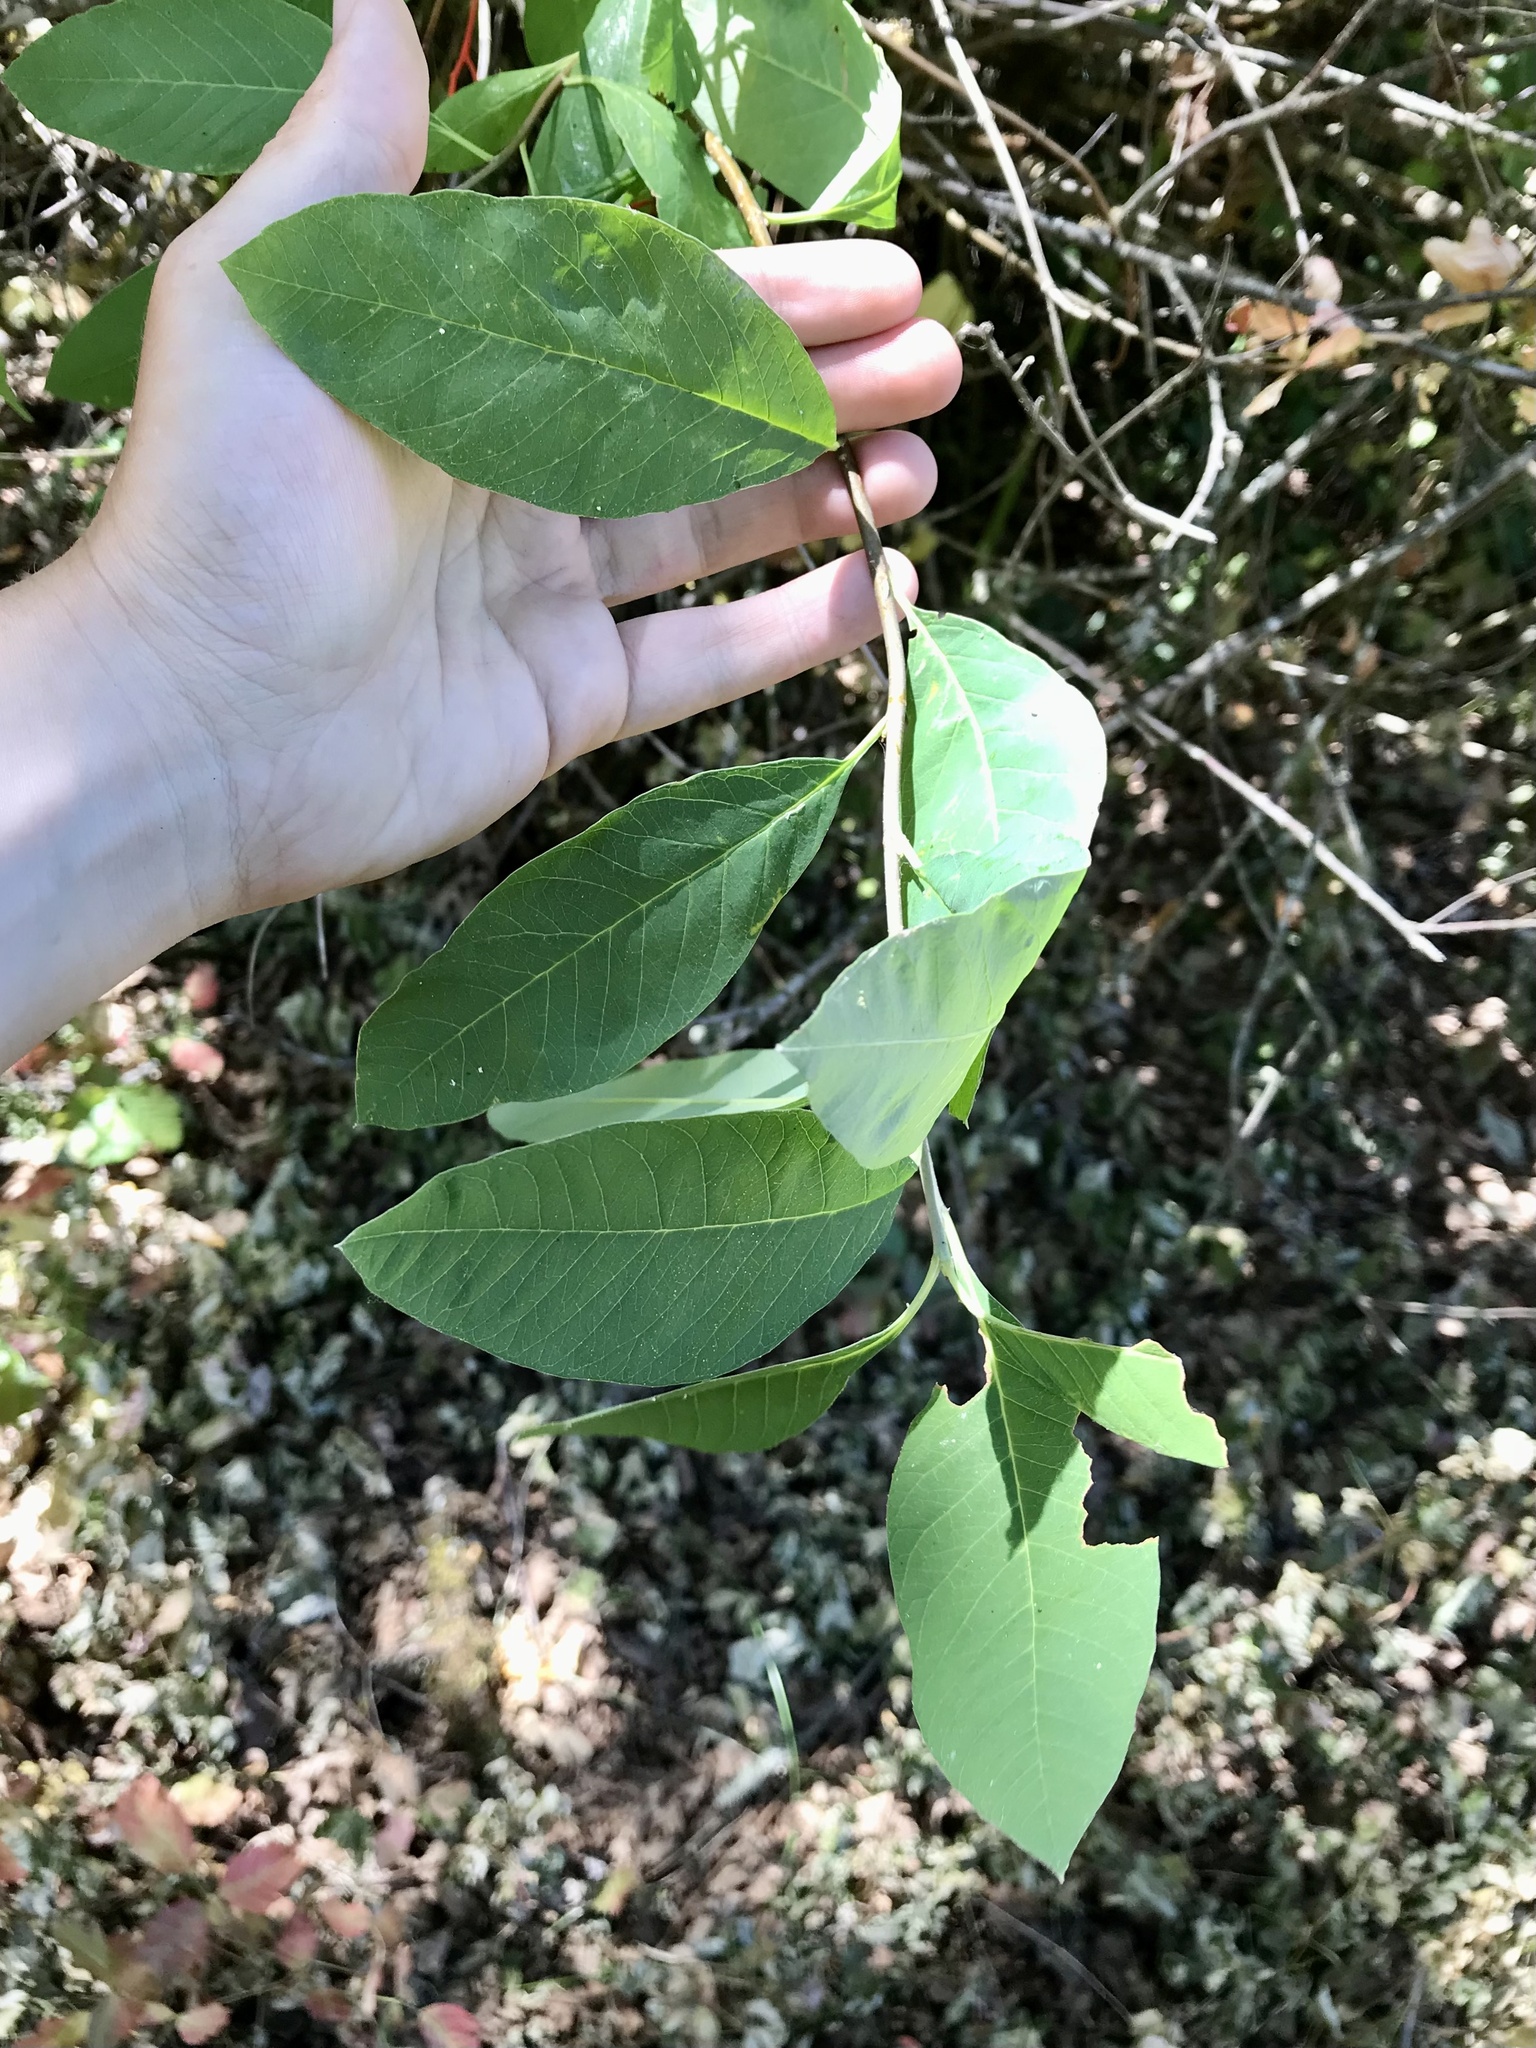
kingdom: Plantae
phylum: Tracheophyta
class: Magnoliopsida
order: Rosales
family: Rosaceae
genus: Oemleria
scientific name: Oemleria cerasiformis
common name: Osoberry
